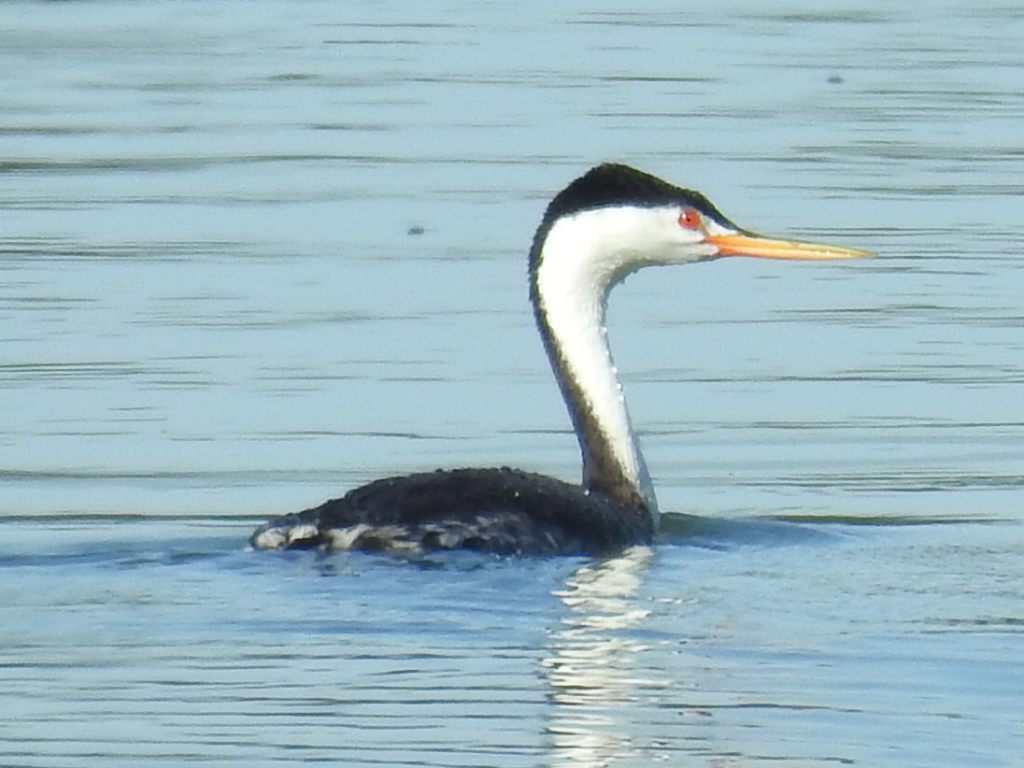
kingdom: Animalia
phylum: Chordata
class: Aves
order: Podicipediformes
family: Podicipedidae
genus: Aechmophorus
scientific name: Aechmophorus clarkii
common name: Clark's grebe
